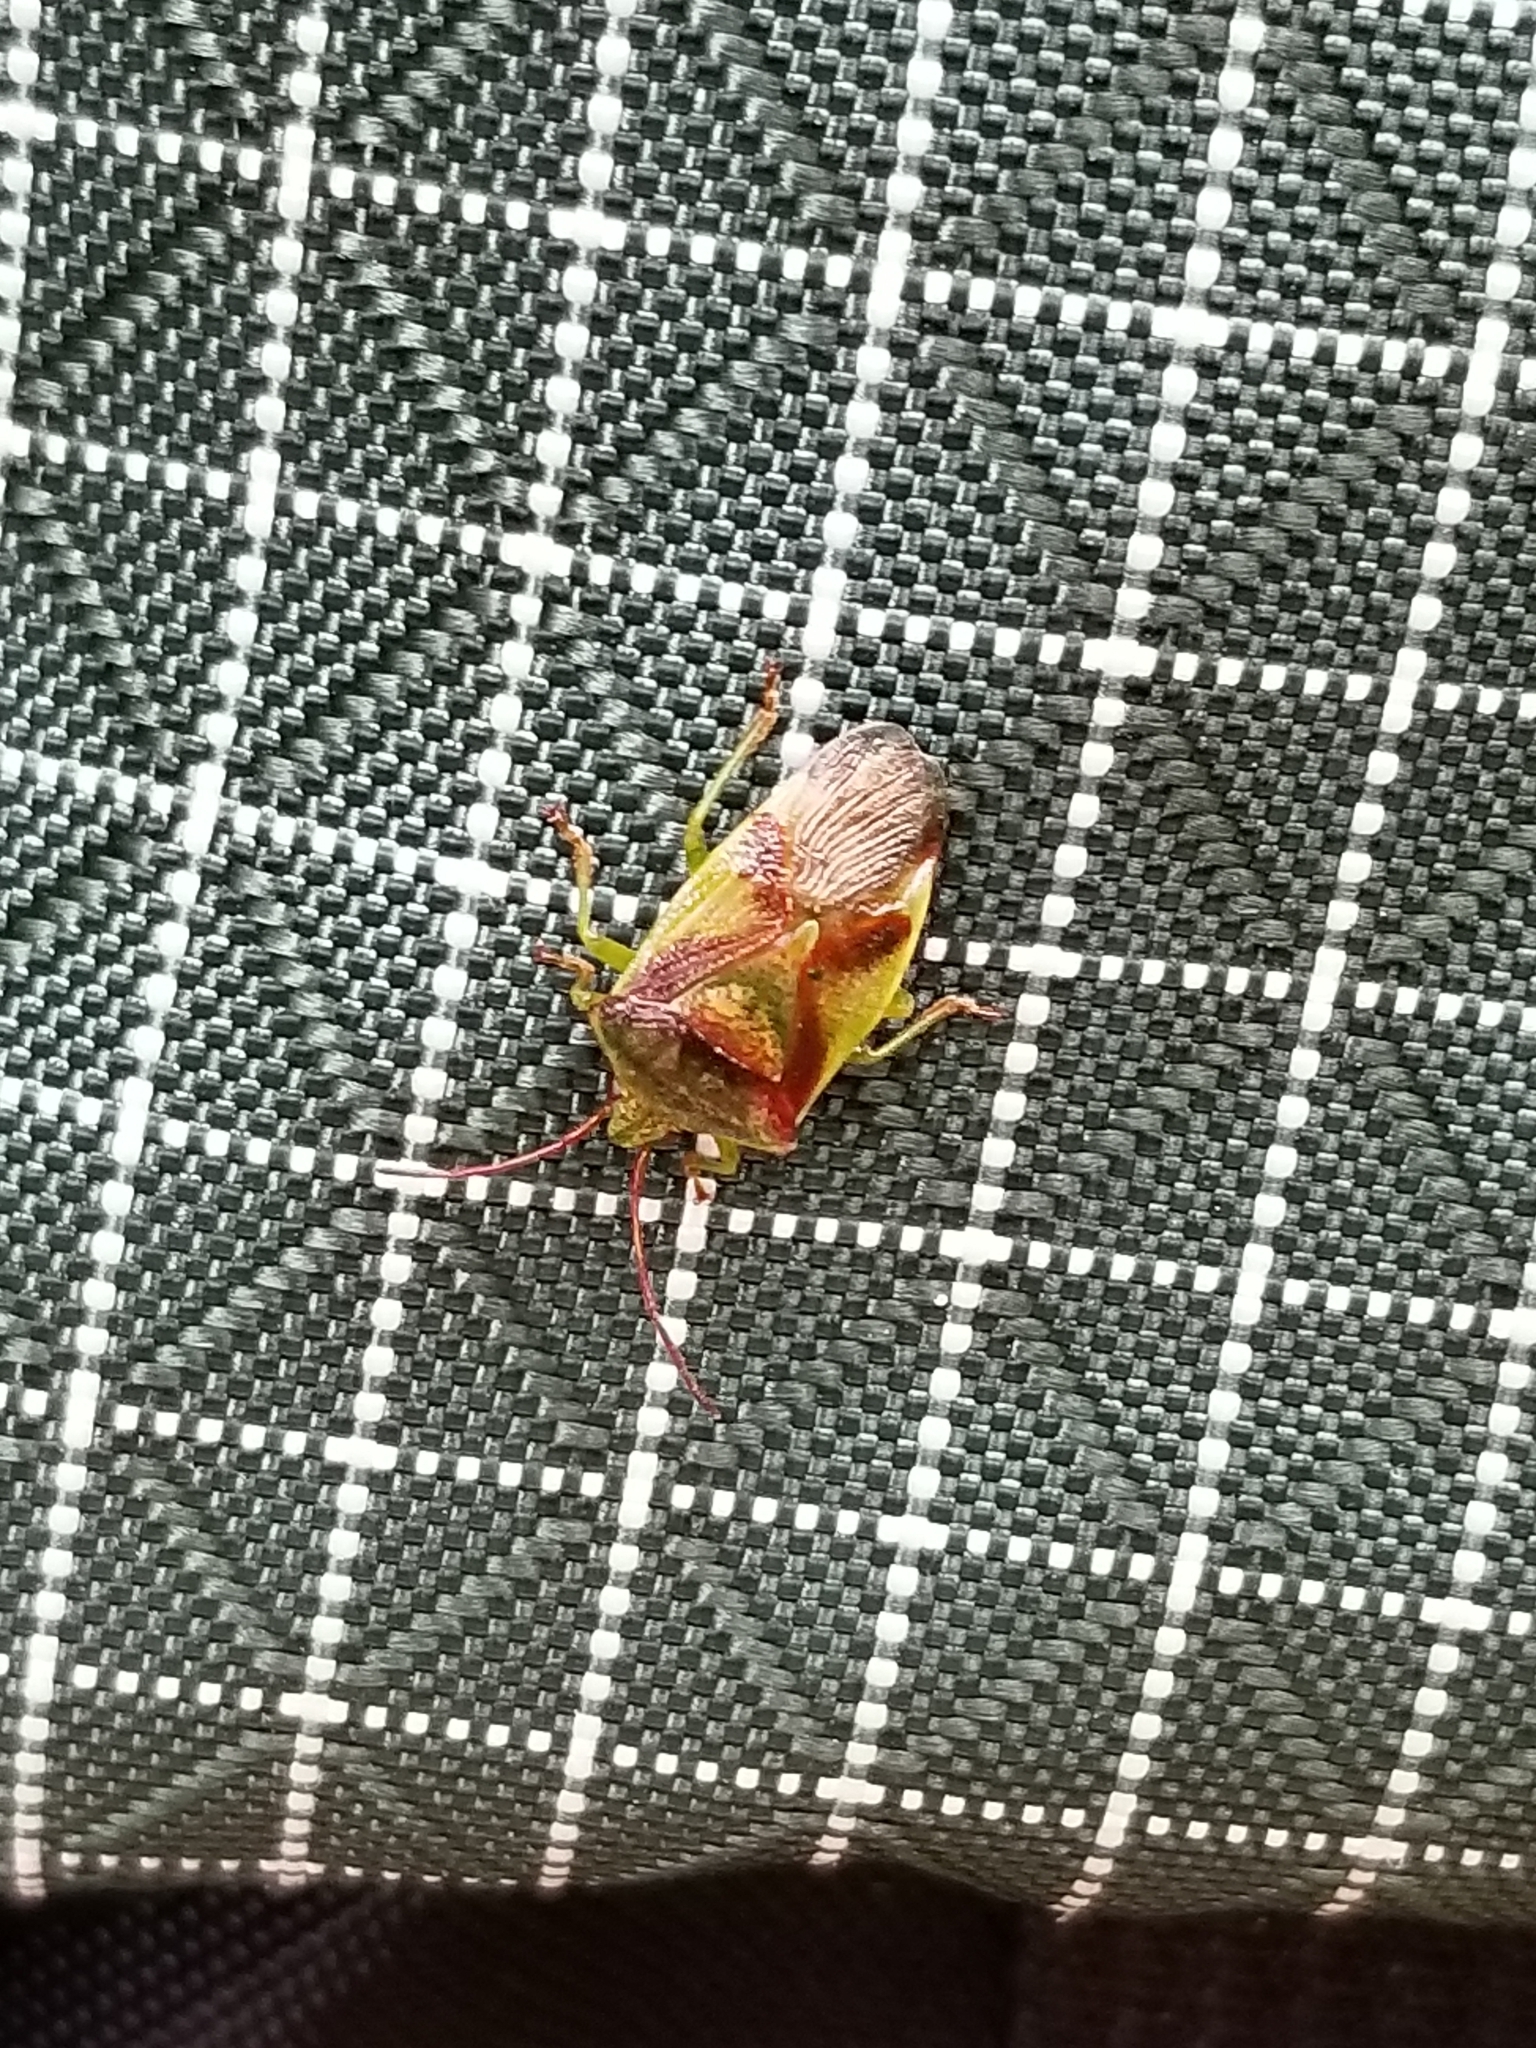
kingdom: Animalia
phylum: Arthropoda
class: Insecta
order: Hemiptera
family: Acanthosomatidae
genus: Elasmostethus
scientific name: Elasmostethus cruciatus
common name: Red-cross shield bug
